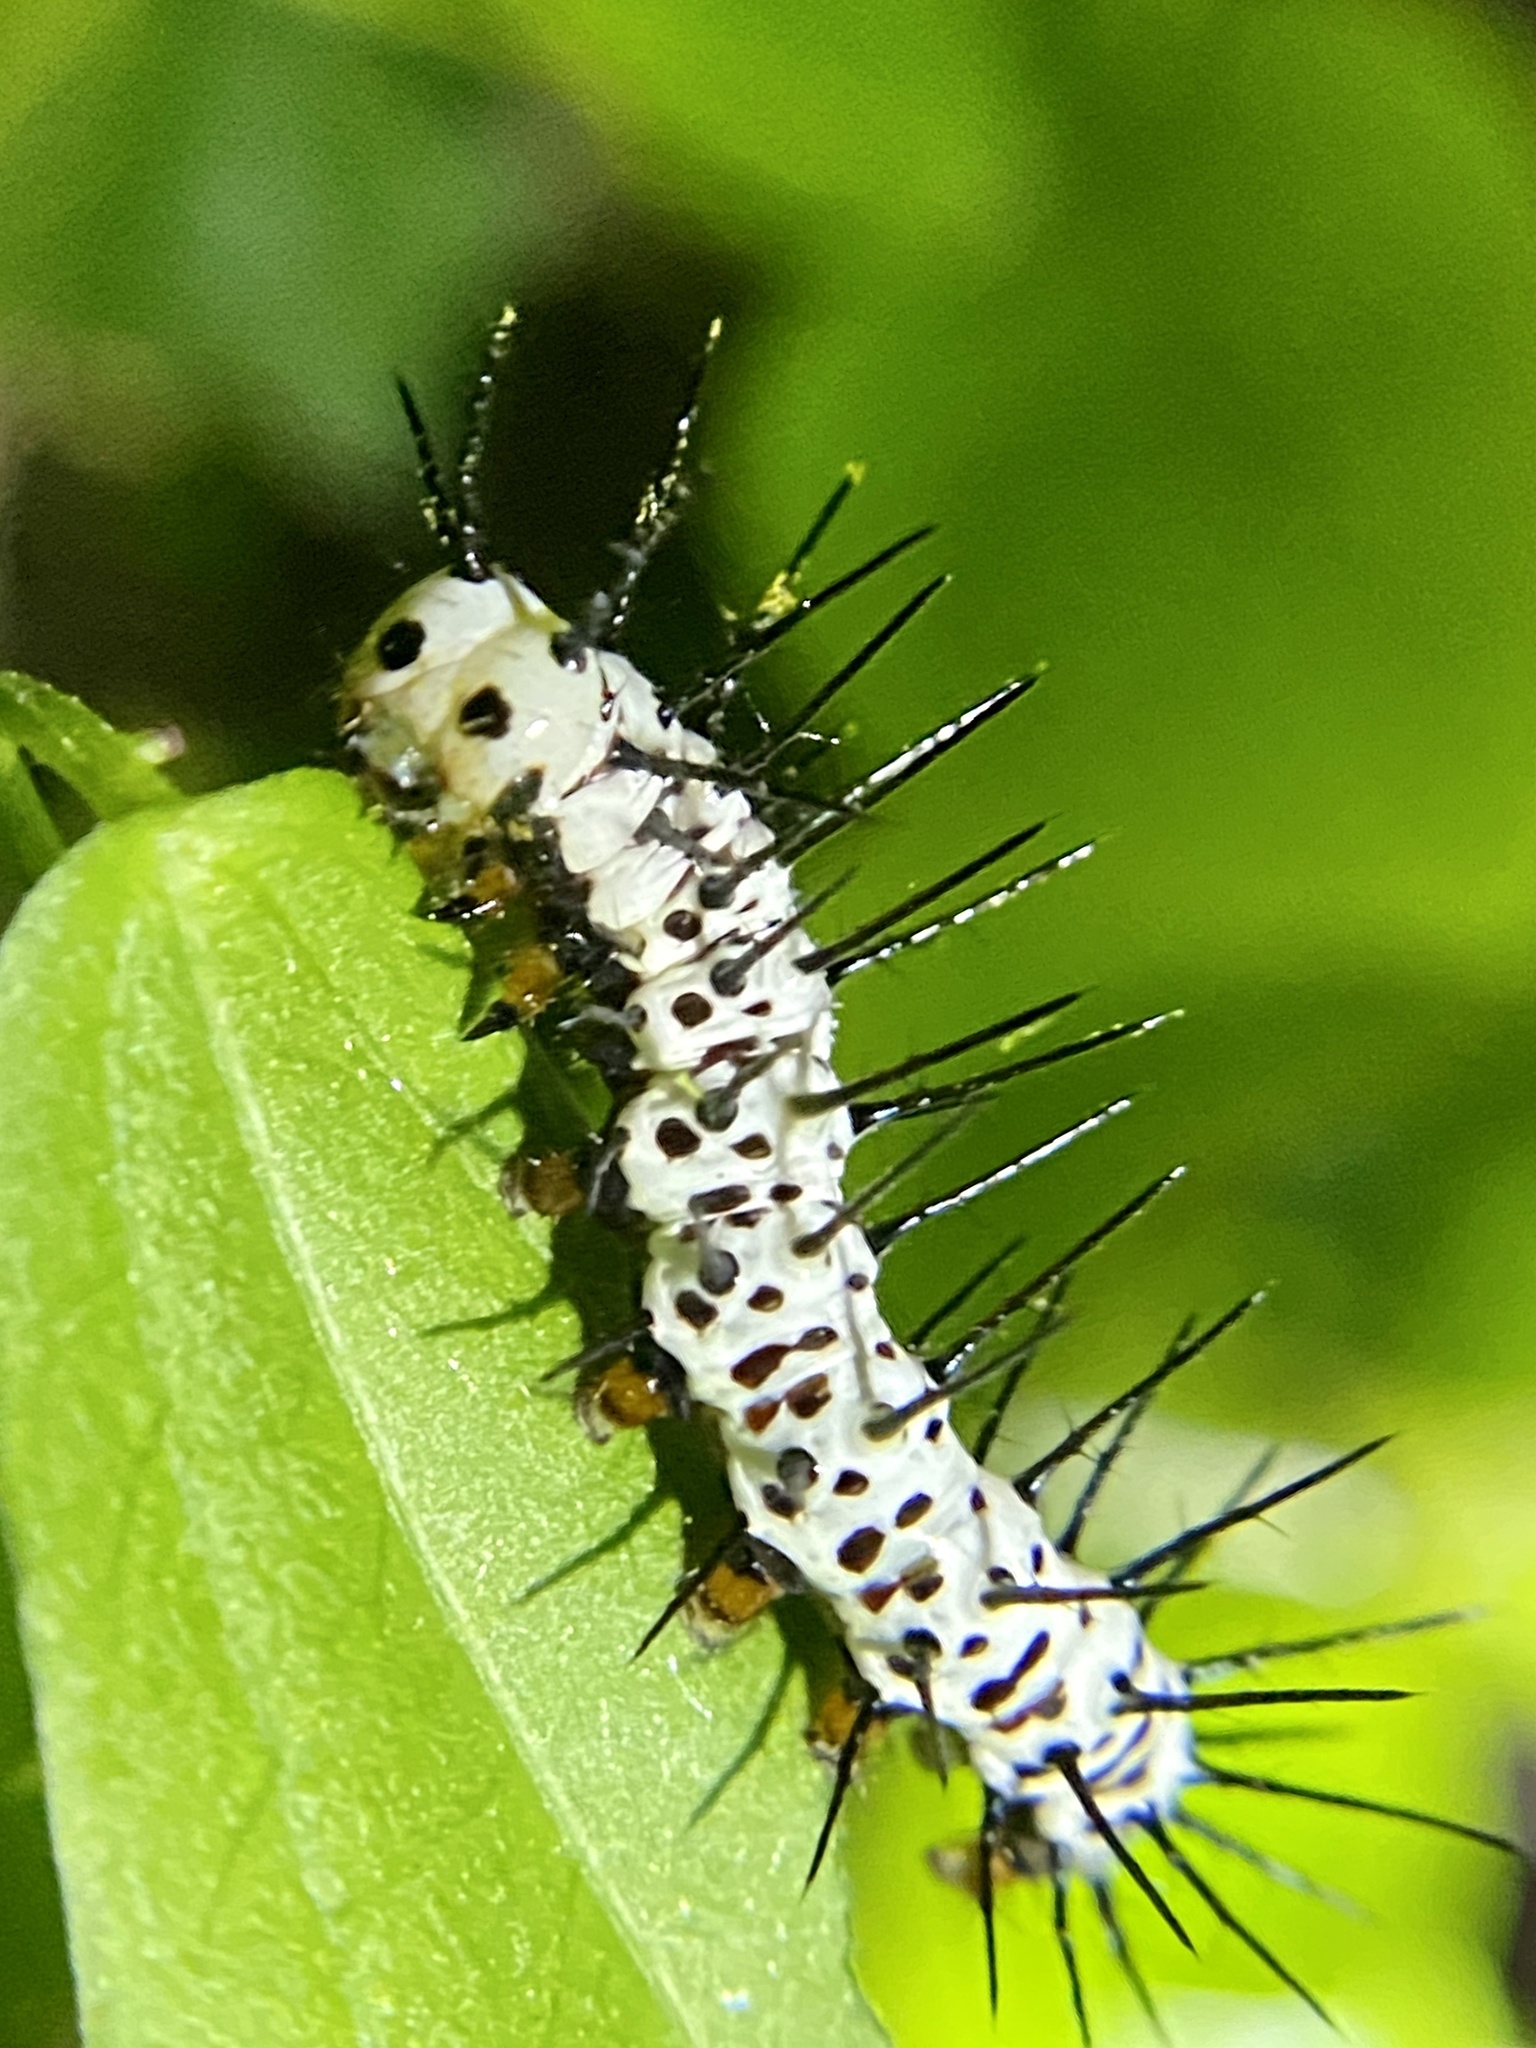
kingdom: Animalia
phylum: Arthropoda
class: Insecta
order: Lepidoptera
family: Nymphalidae
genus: Heliconius
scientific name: Heliconius charithonia
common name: Zebra long wing
